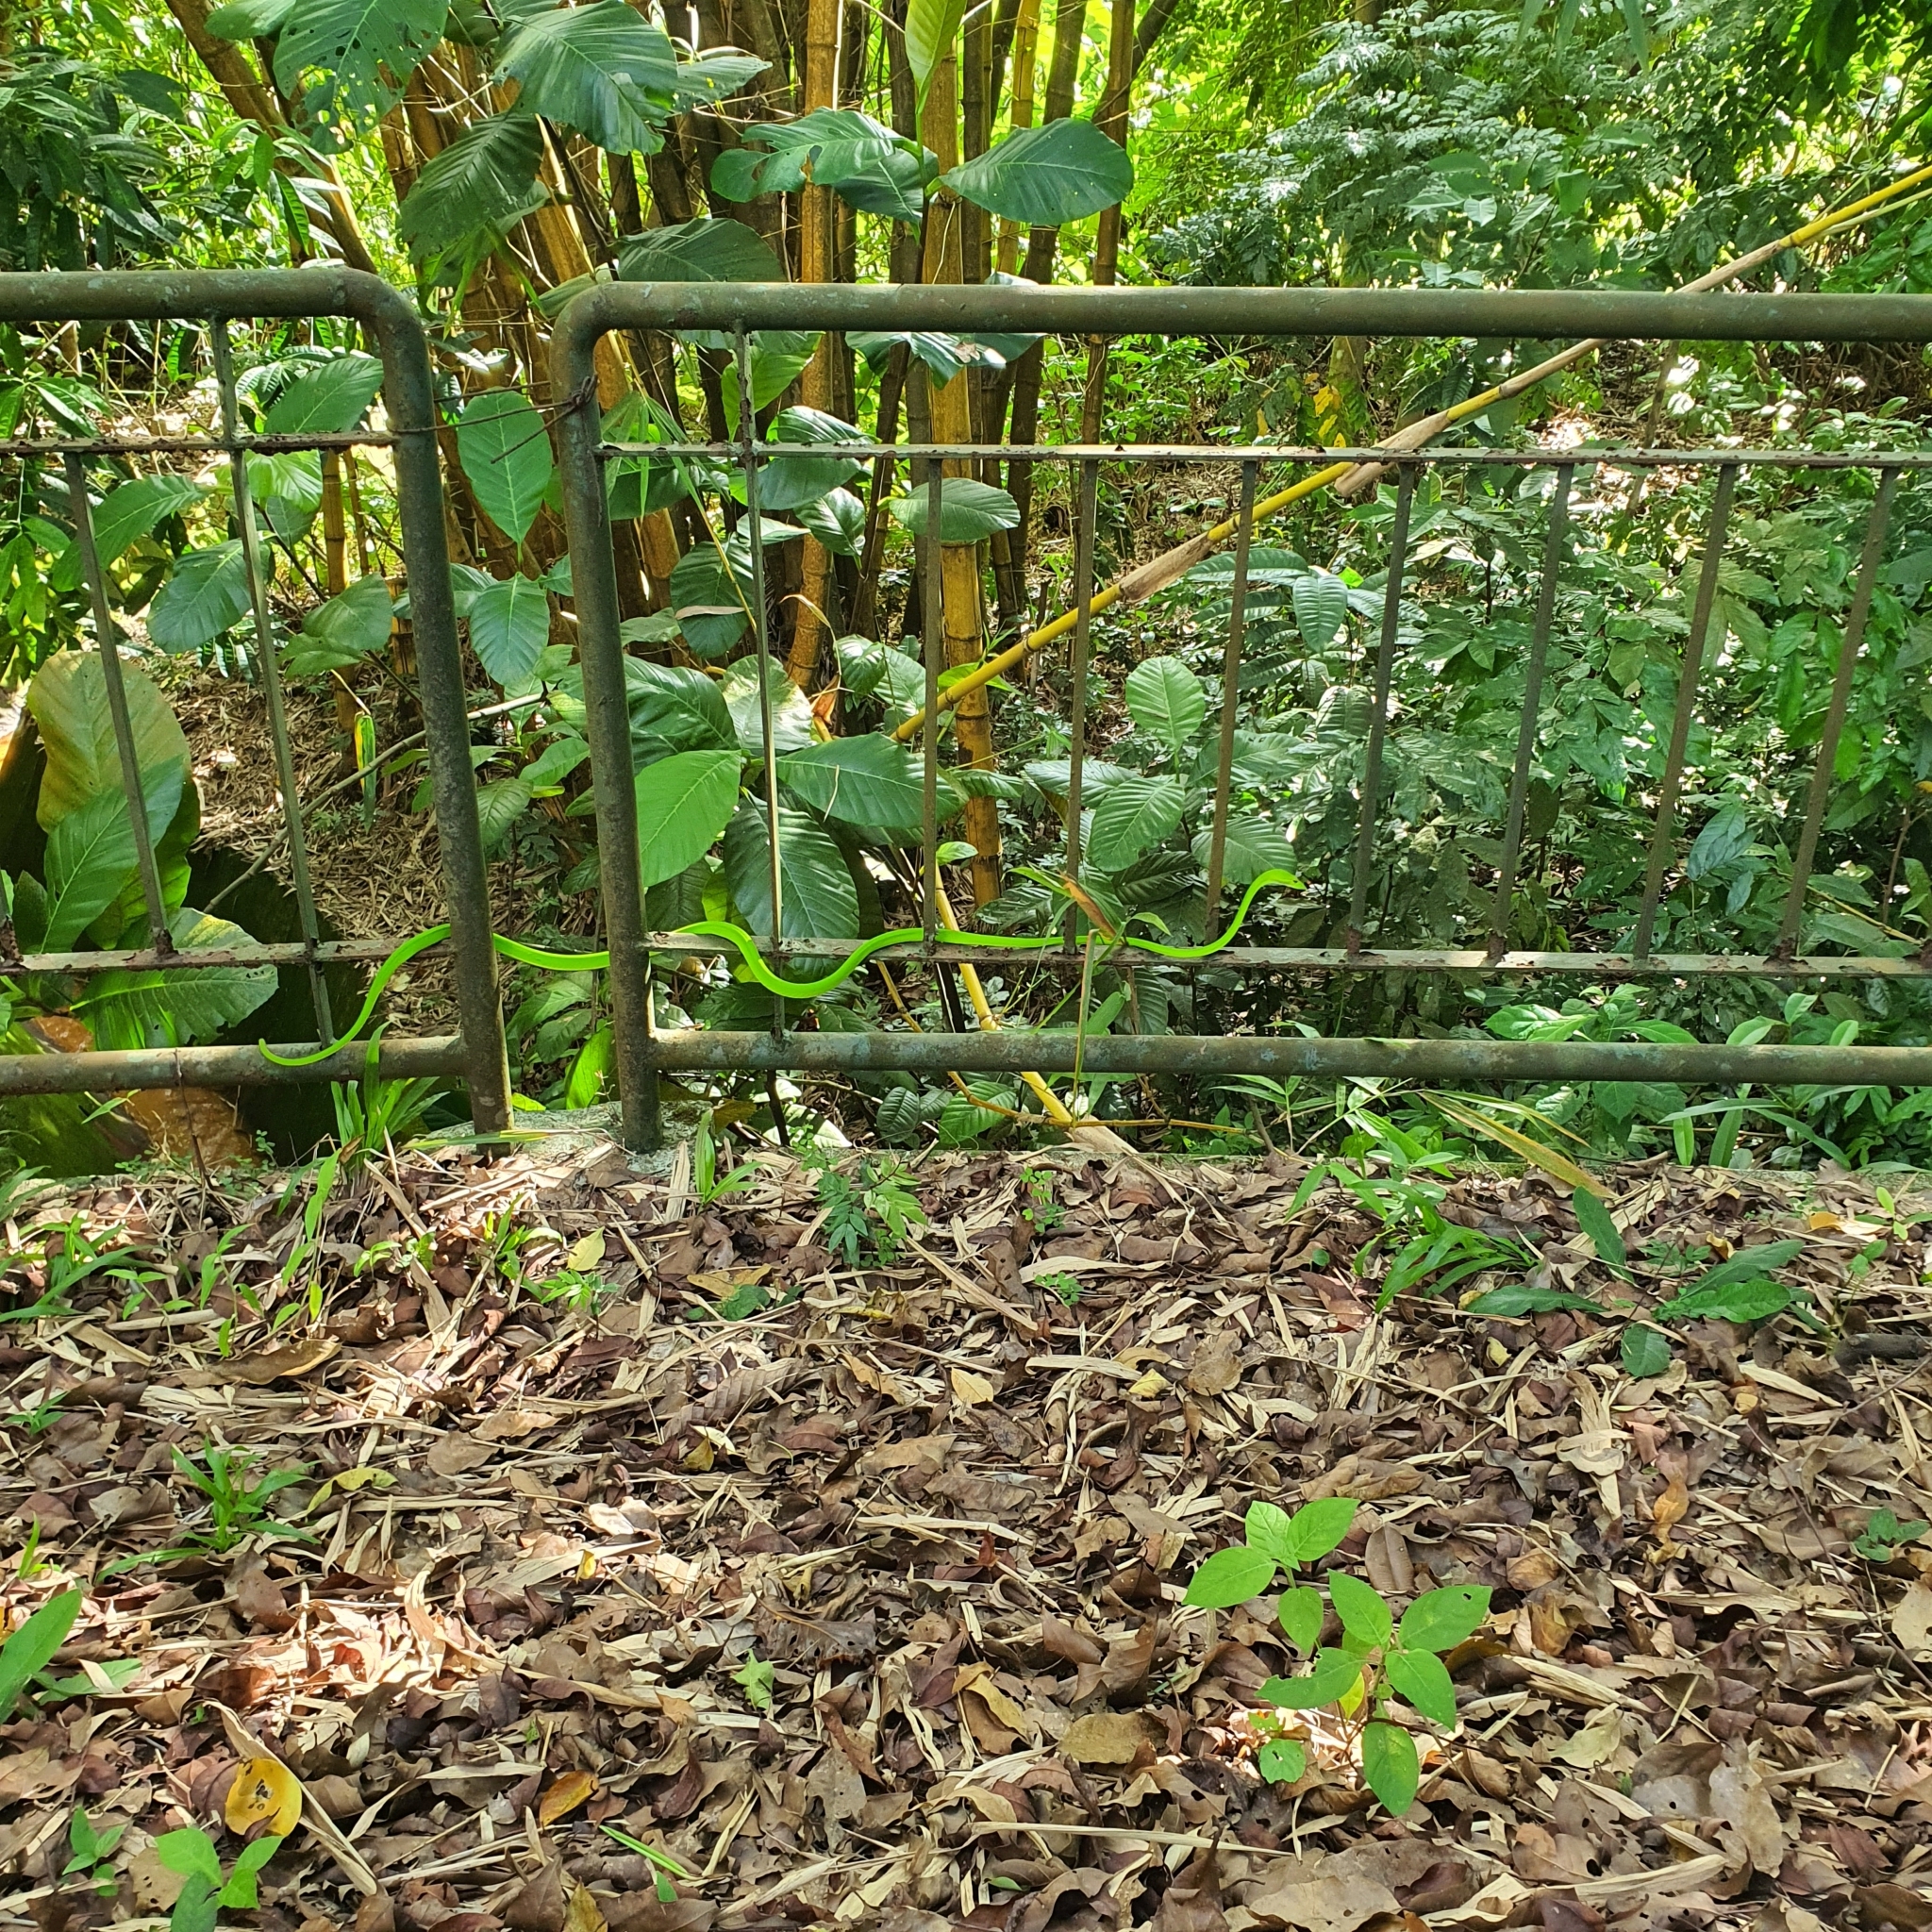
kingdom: Animalia
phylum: Chordata
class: Squamata
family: Colubridae
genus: Ahaetulla
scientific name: Ahaetulla prasina
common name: Oriental whip snake
